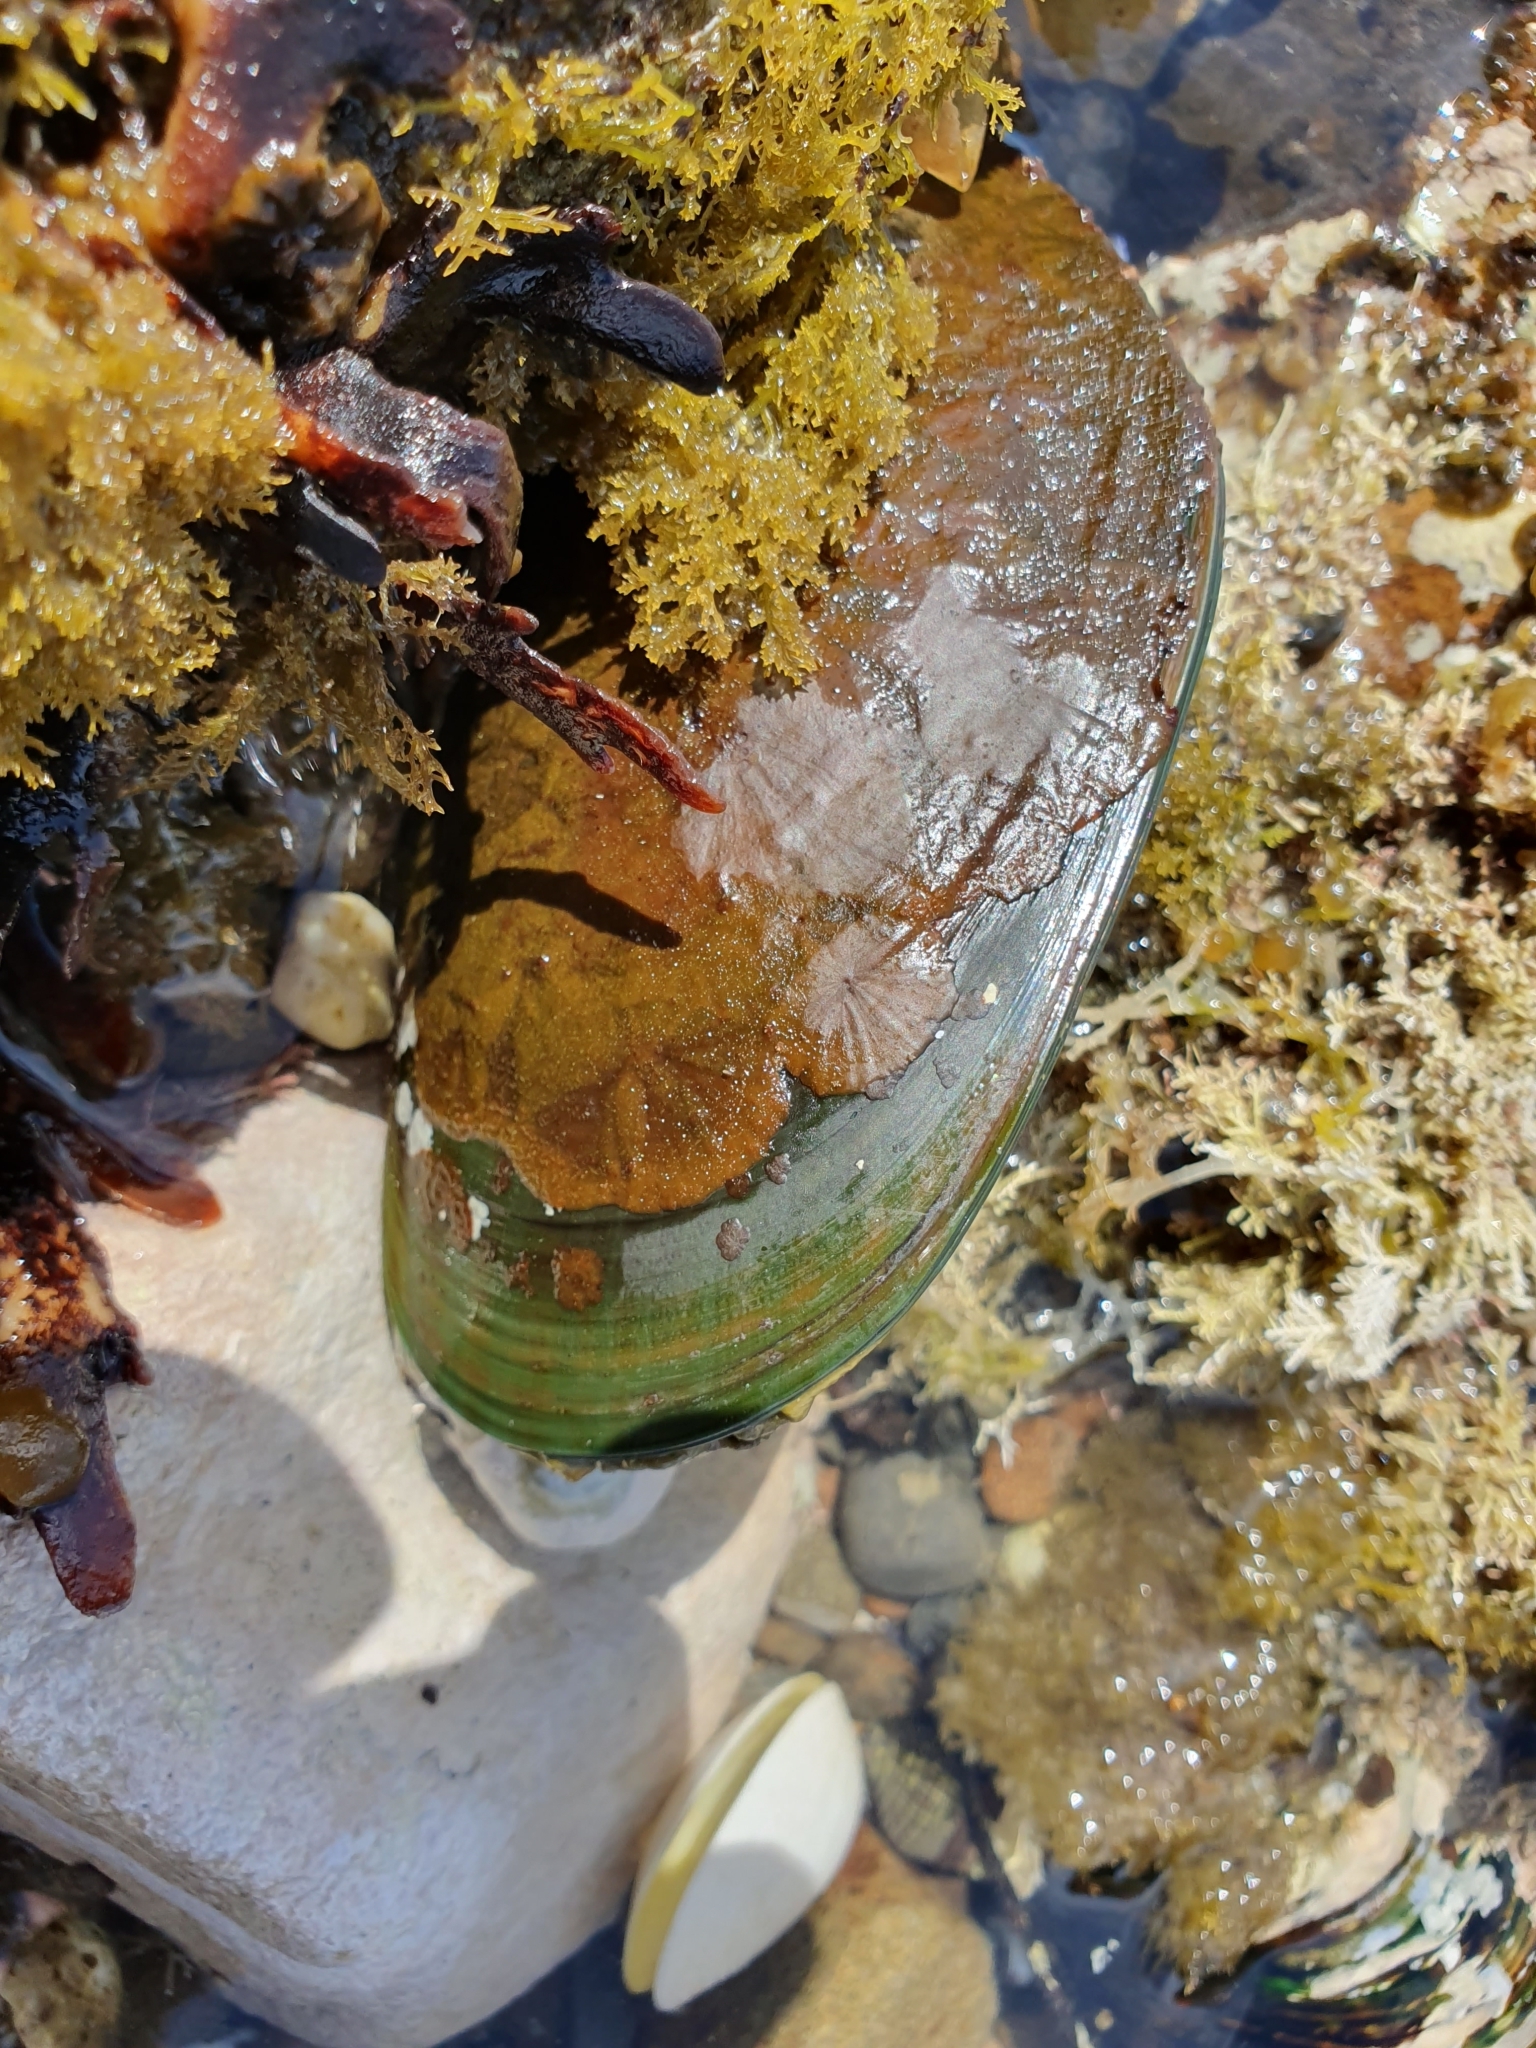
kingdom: Animalia
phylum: Mollusca
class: Bivalvia
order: Mytilida
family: Mytilidae
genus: Perna
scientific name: Perna canaliculus
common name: New zealand greenshelltm
